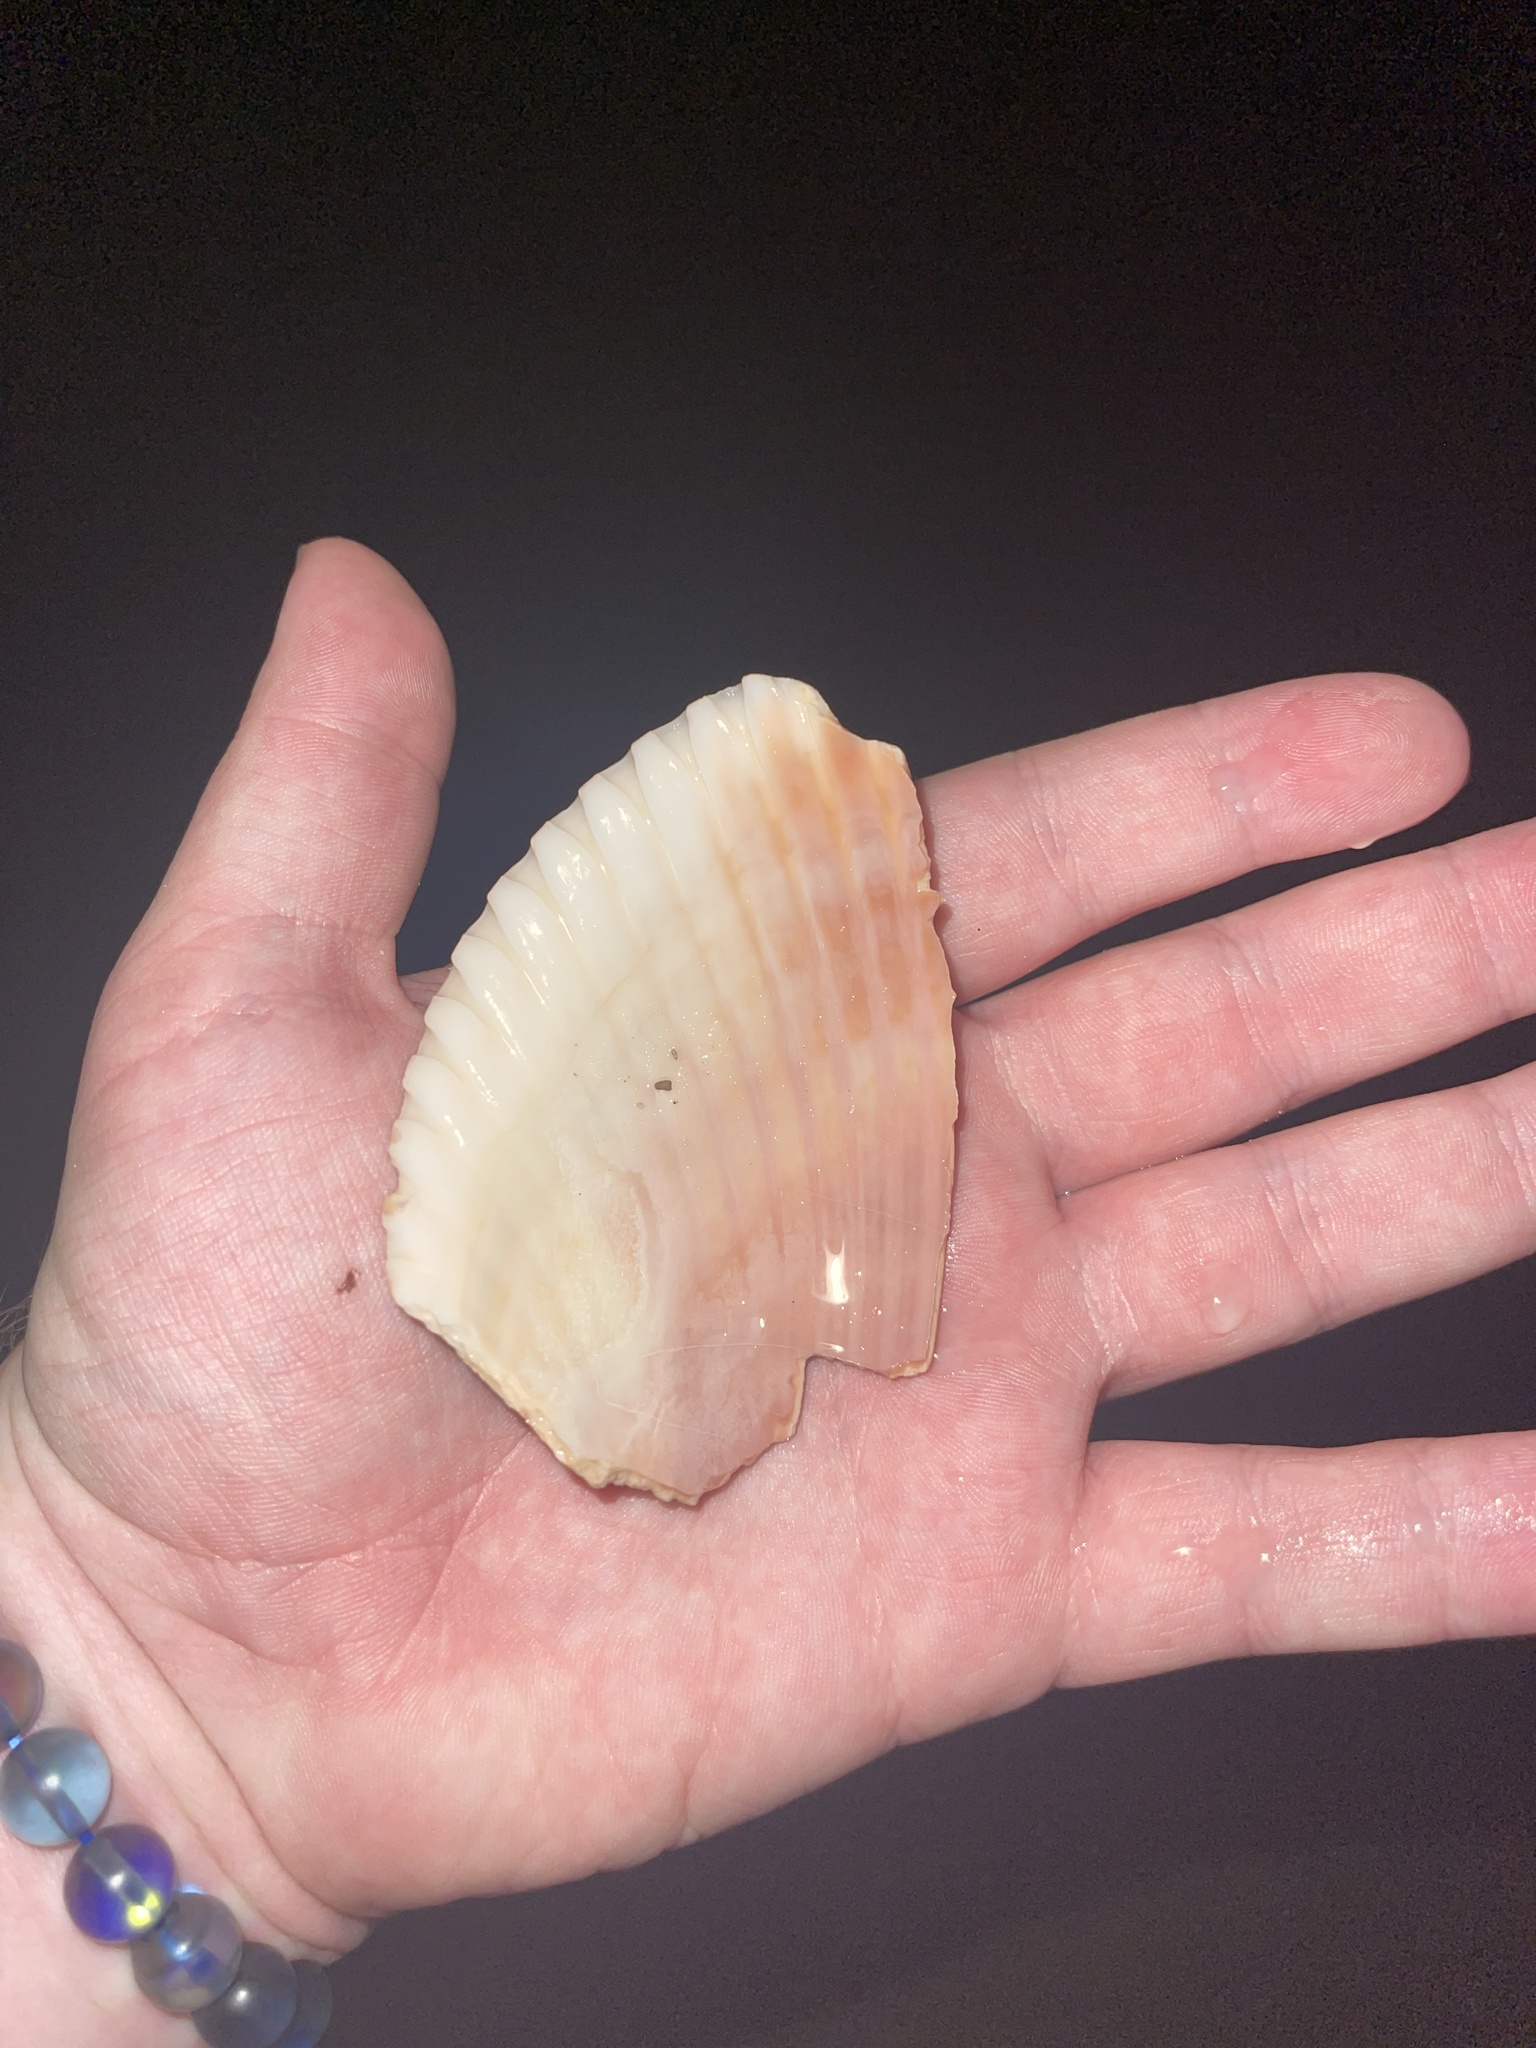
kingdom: Animalia
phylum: Mollusca
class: Bivalvia
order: Cardiida
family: Cardiidae
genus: Dinocardium
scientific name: Dinocardium robustum
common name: Atlantic giant cockle
